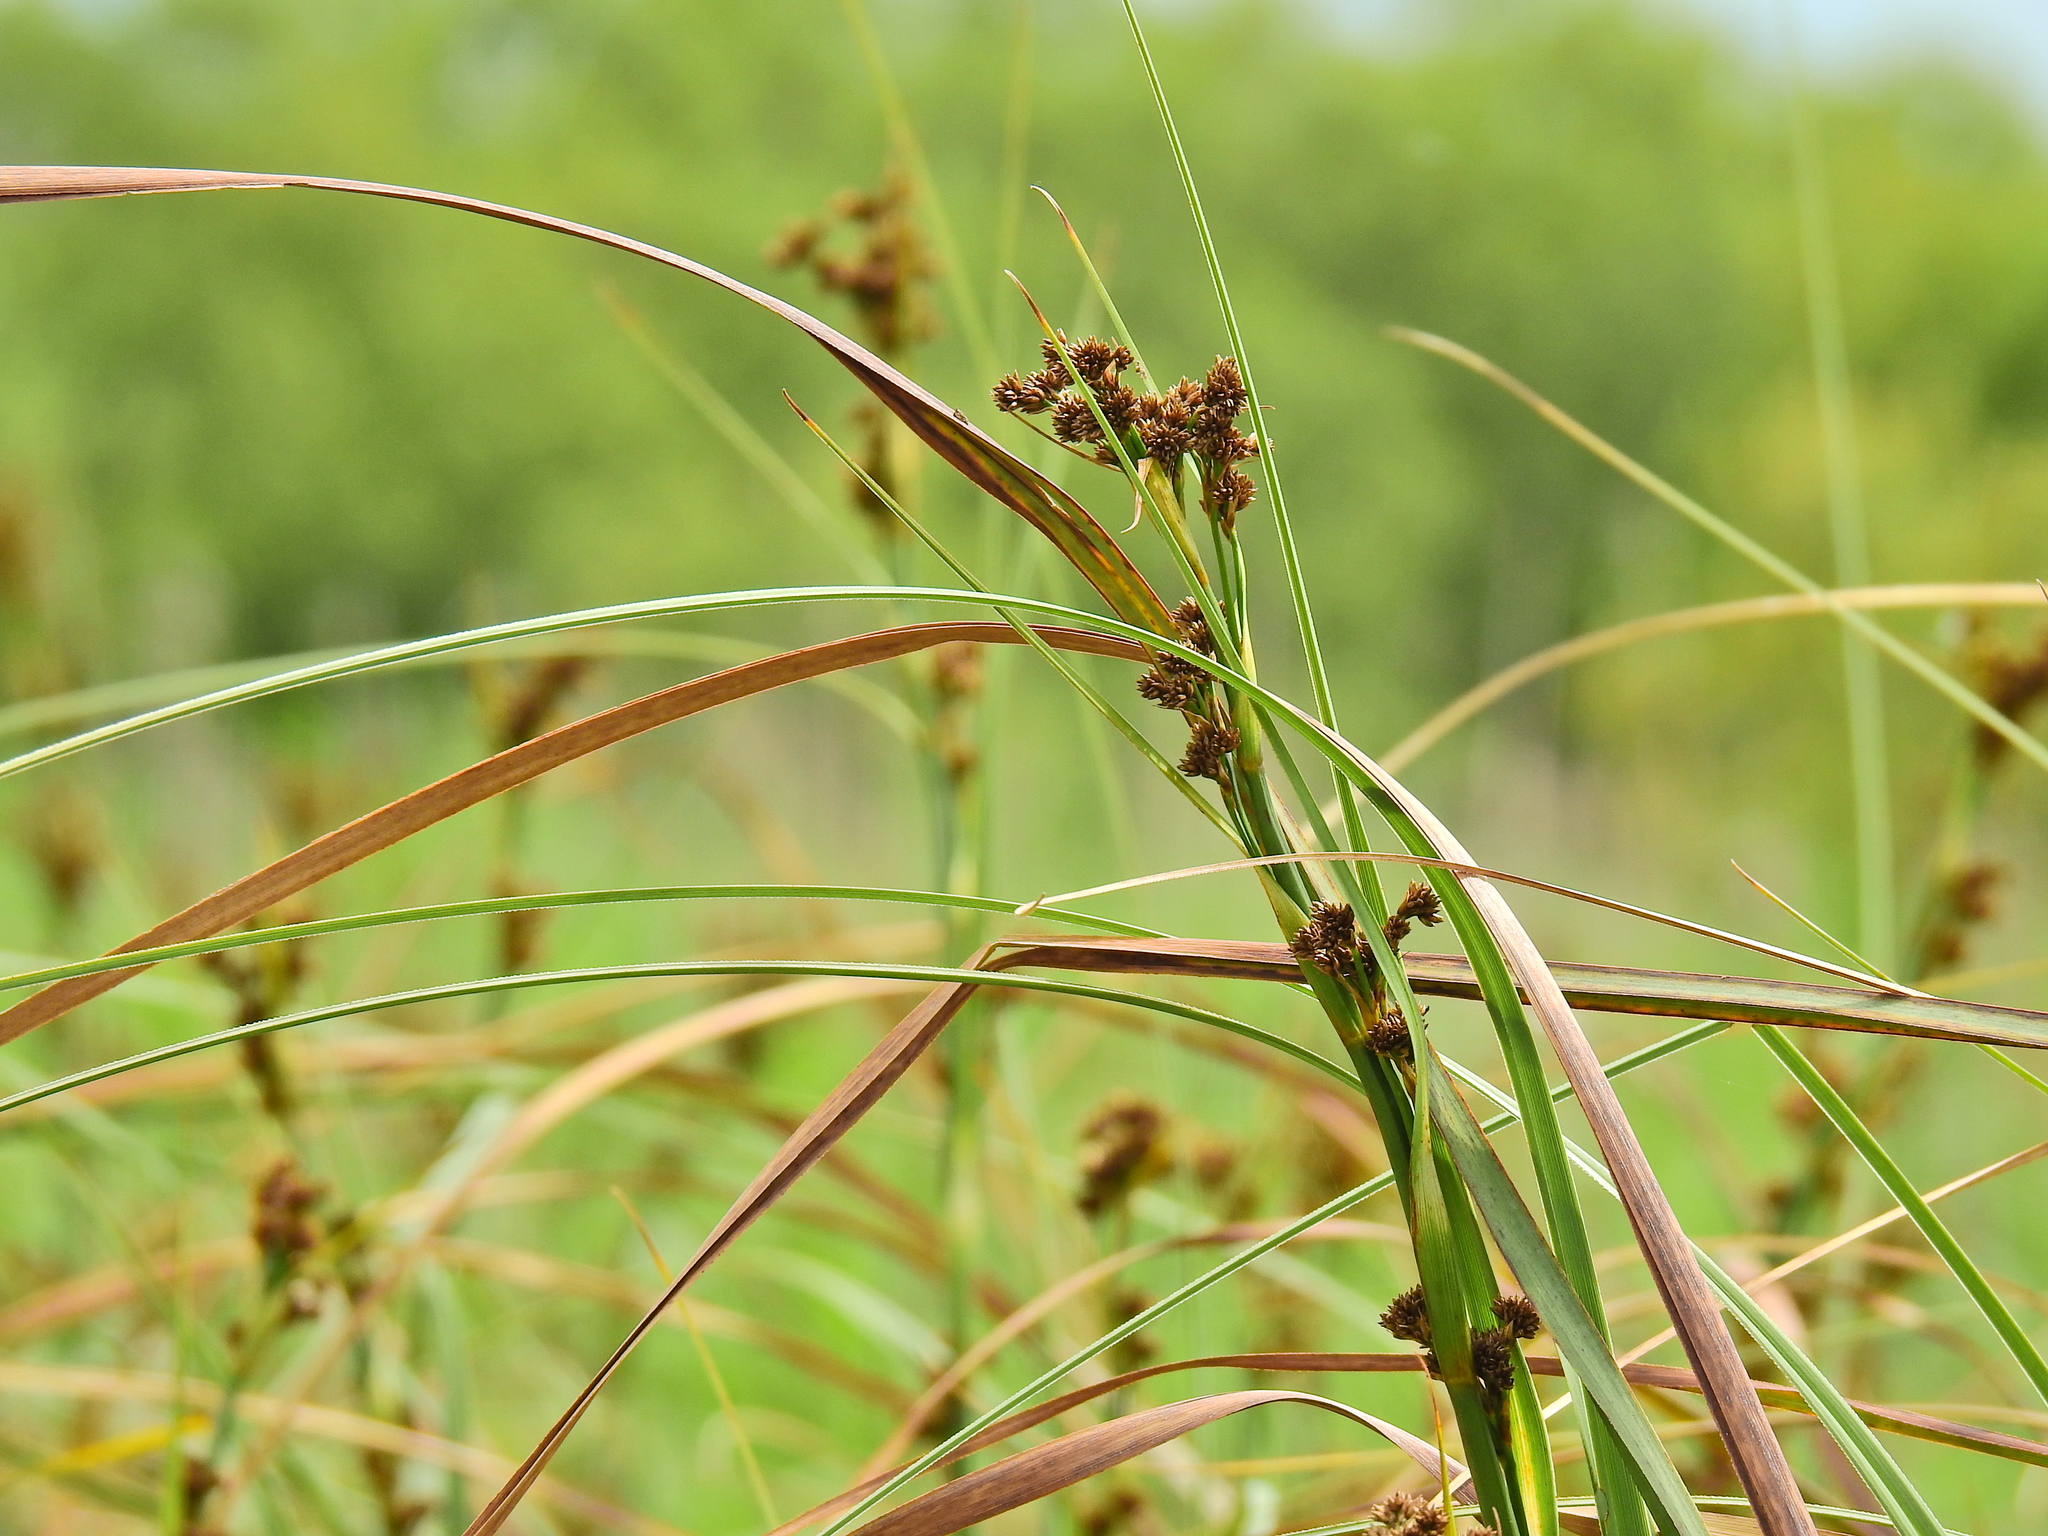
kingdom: Plantae
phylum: Tracheophyta
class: Liliopsida
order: Poales
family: Cyperaceae
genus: Cladium
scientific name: Cladium mariscus
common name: Great fen-sedge
